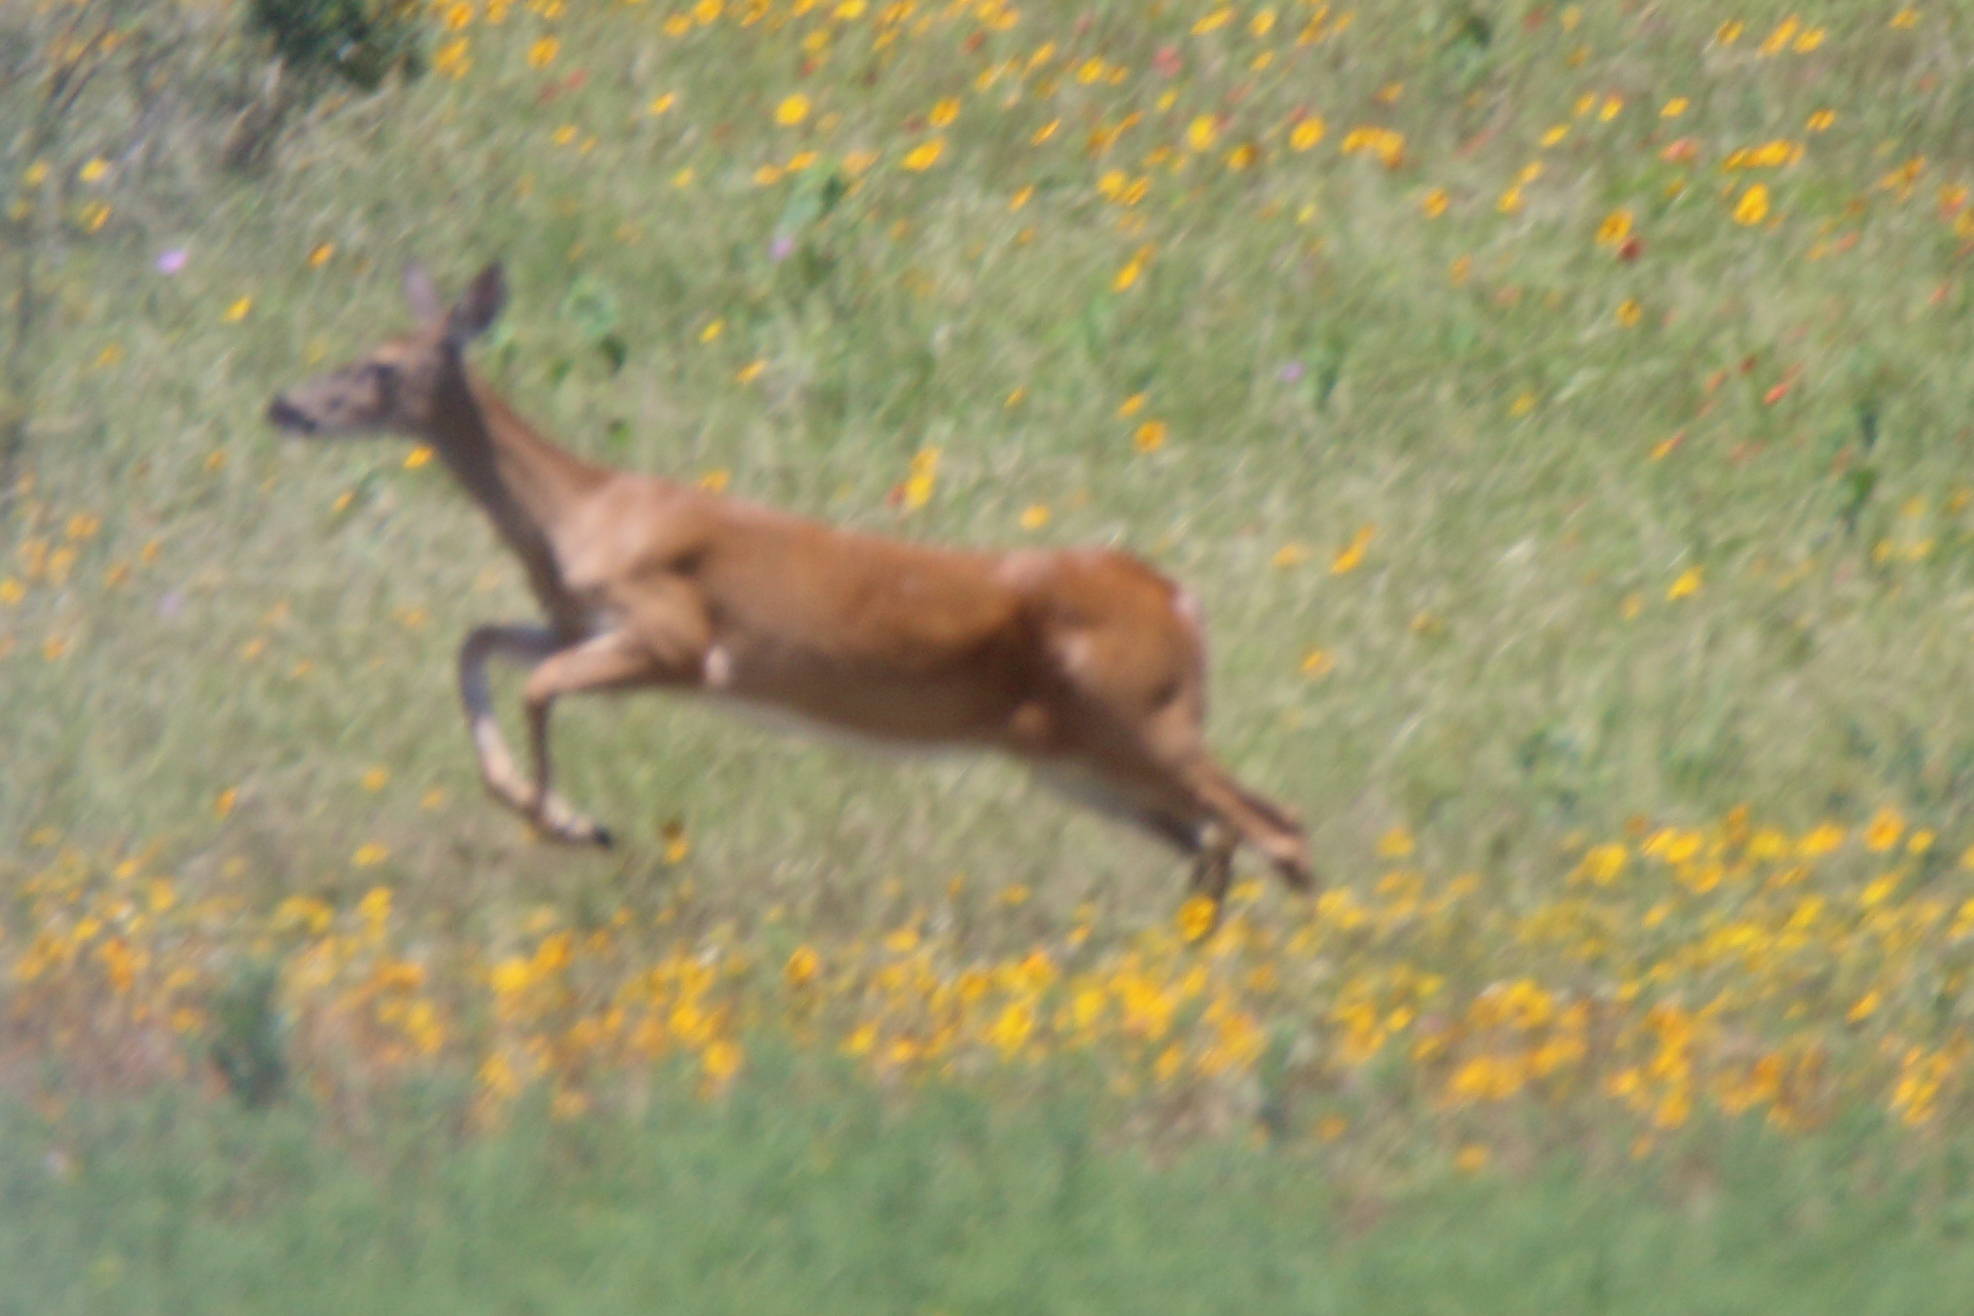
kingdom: Animalia
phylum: Chordata
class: Mammalia
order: Artiodactyla
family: Cervidae
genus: Odocoileus
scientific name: Odocoileus virginianus
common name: White-tailed deer
